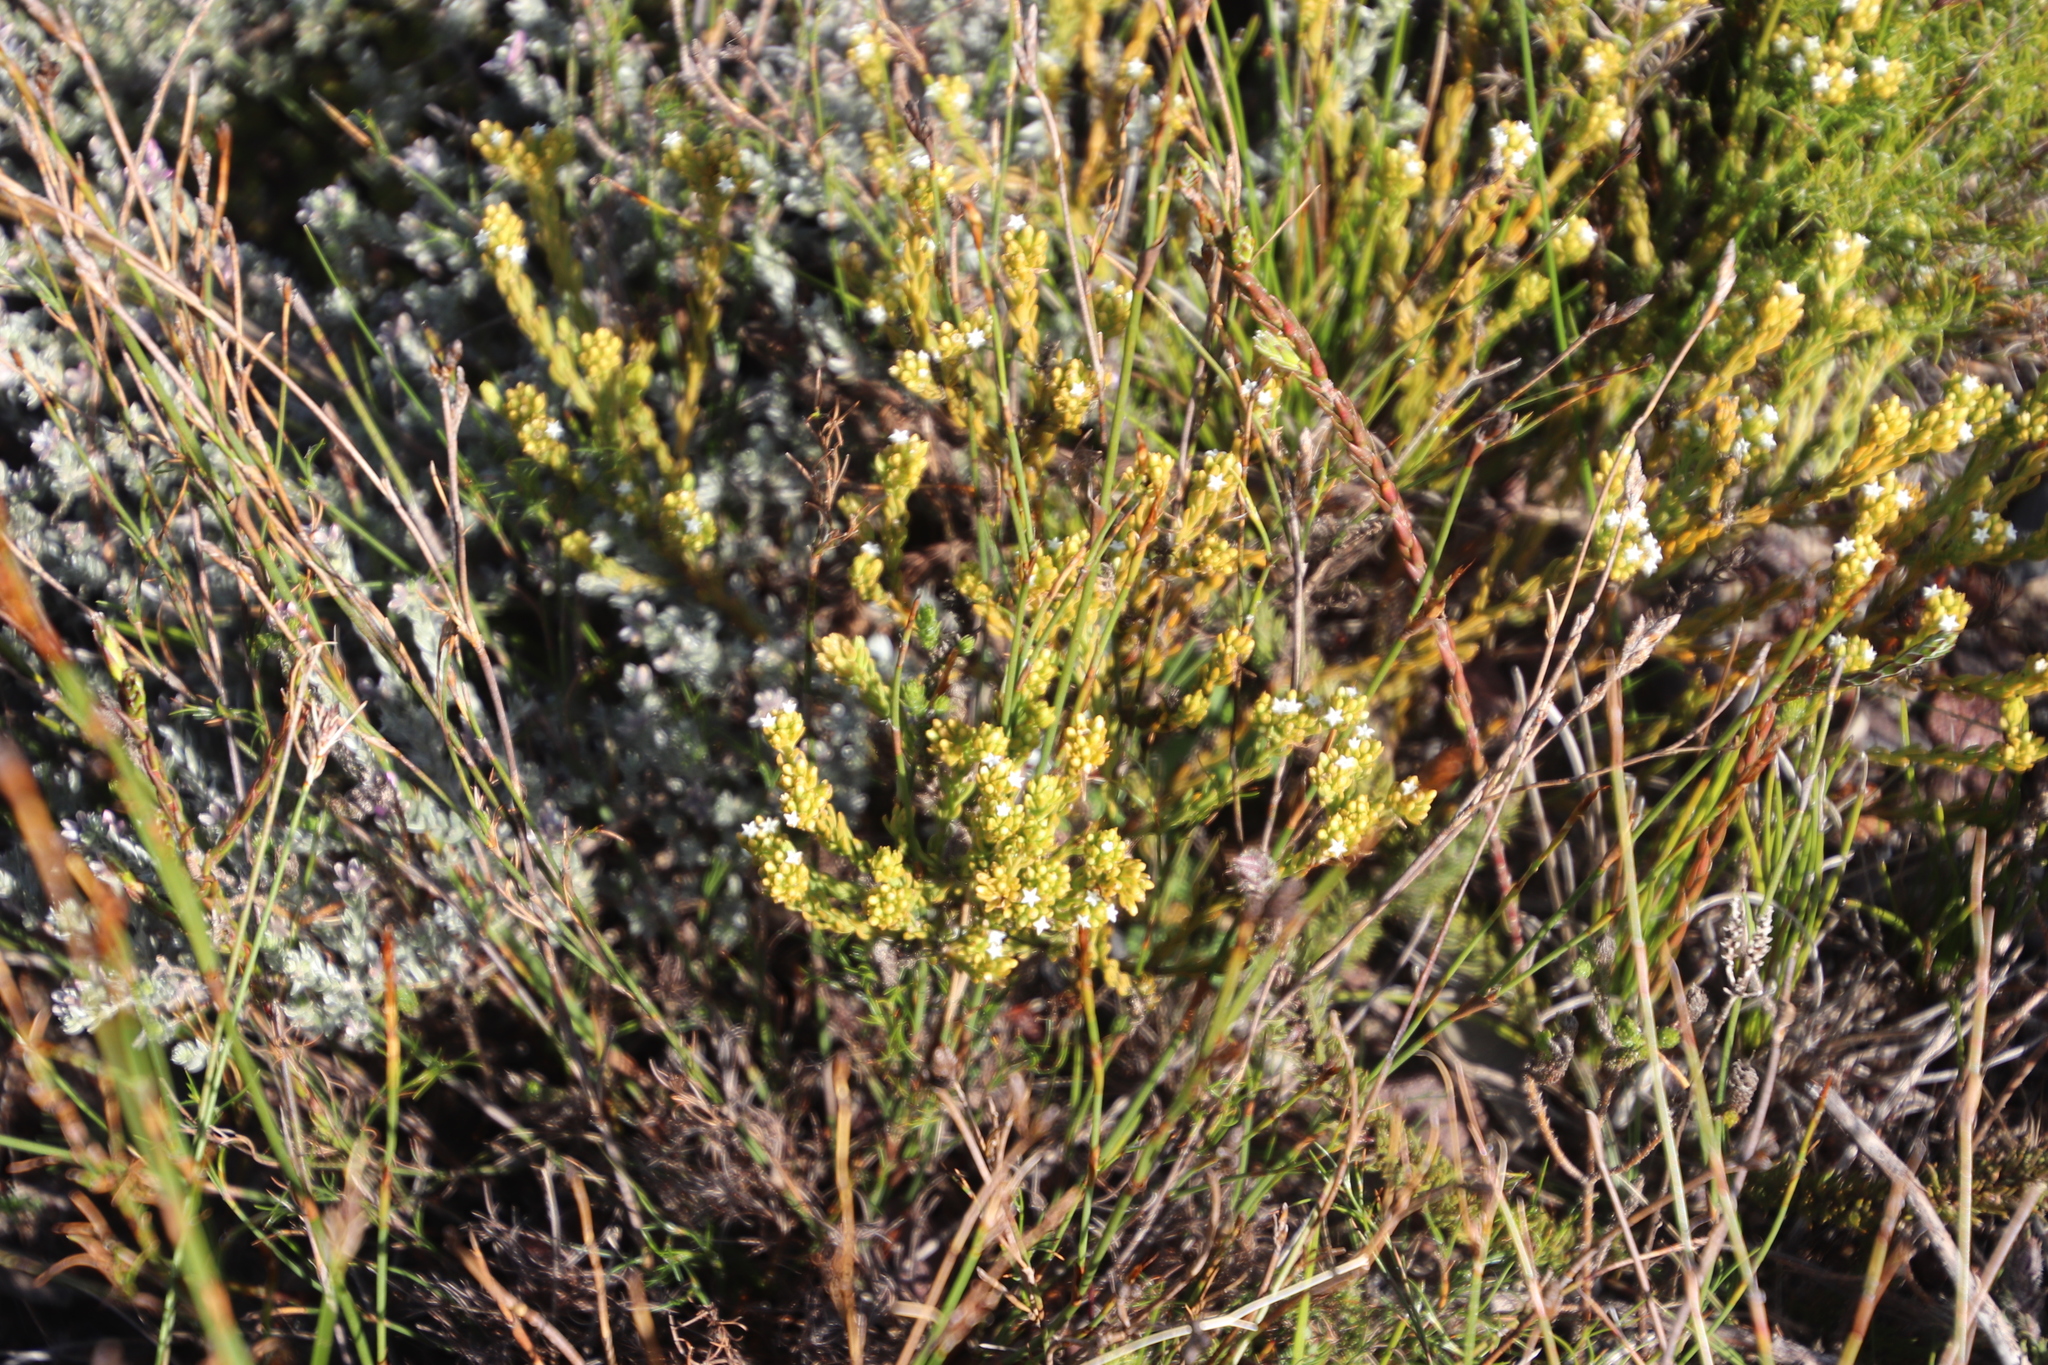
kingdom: Plantae
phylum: Tracheophyta
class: Magnoliopsida
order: Santalales
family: Thesiaceae
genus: Thesium
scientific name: Thesium viridifolium
